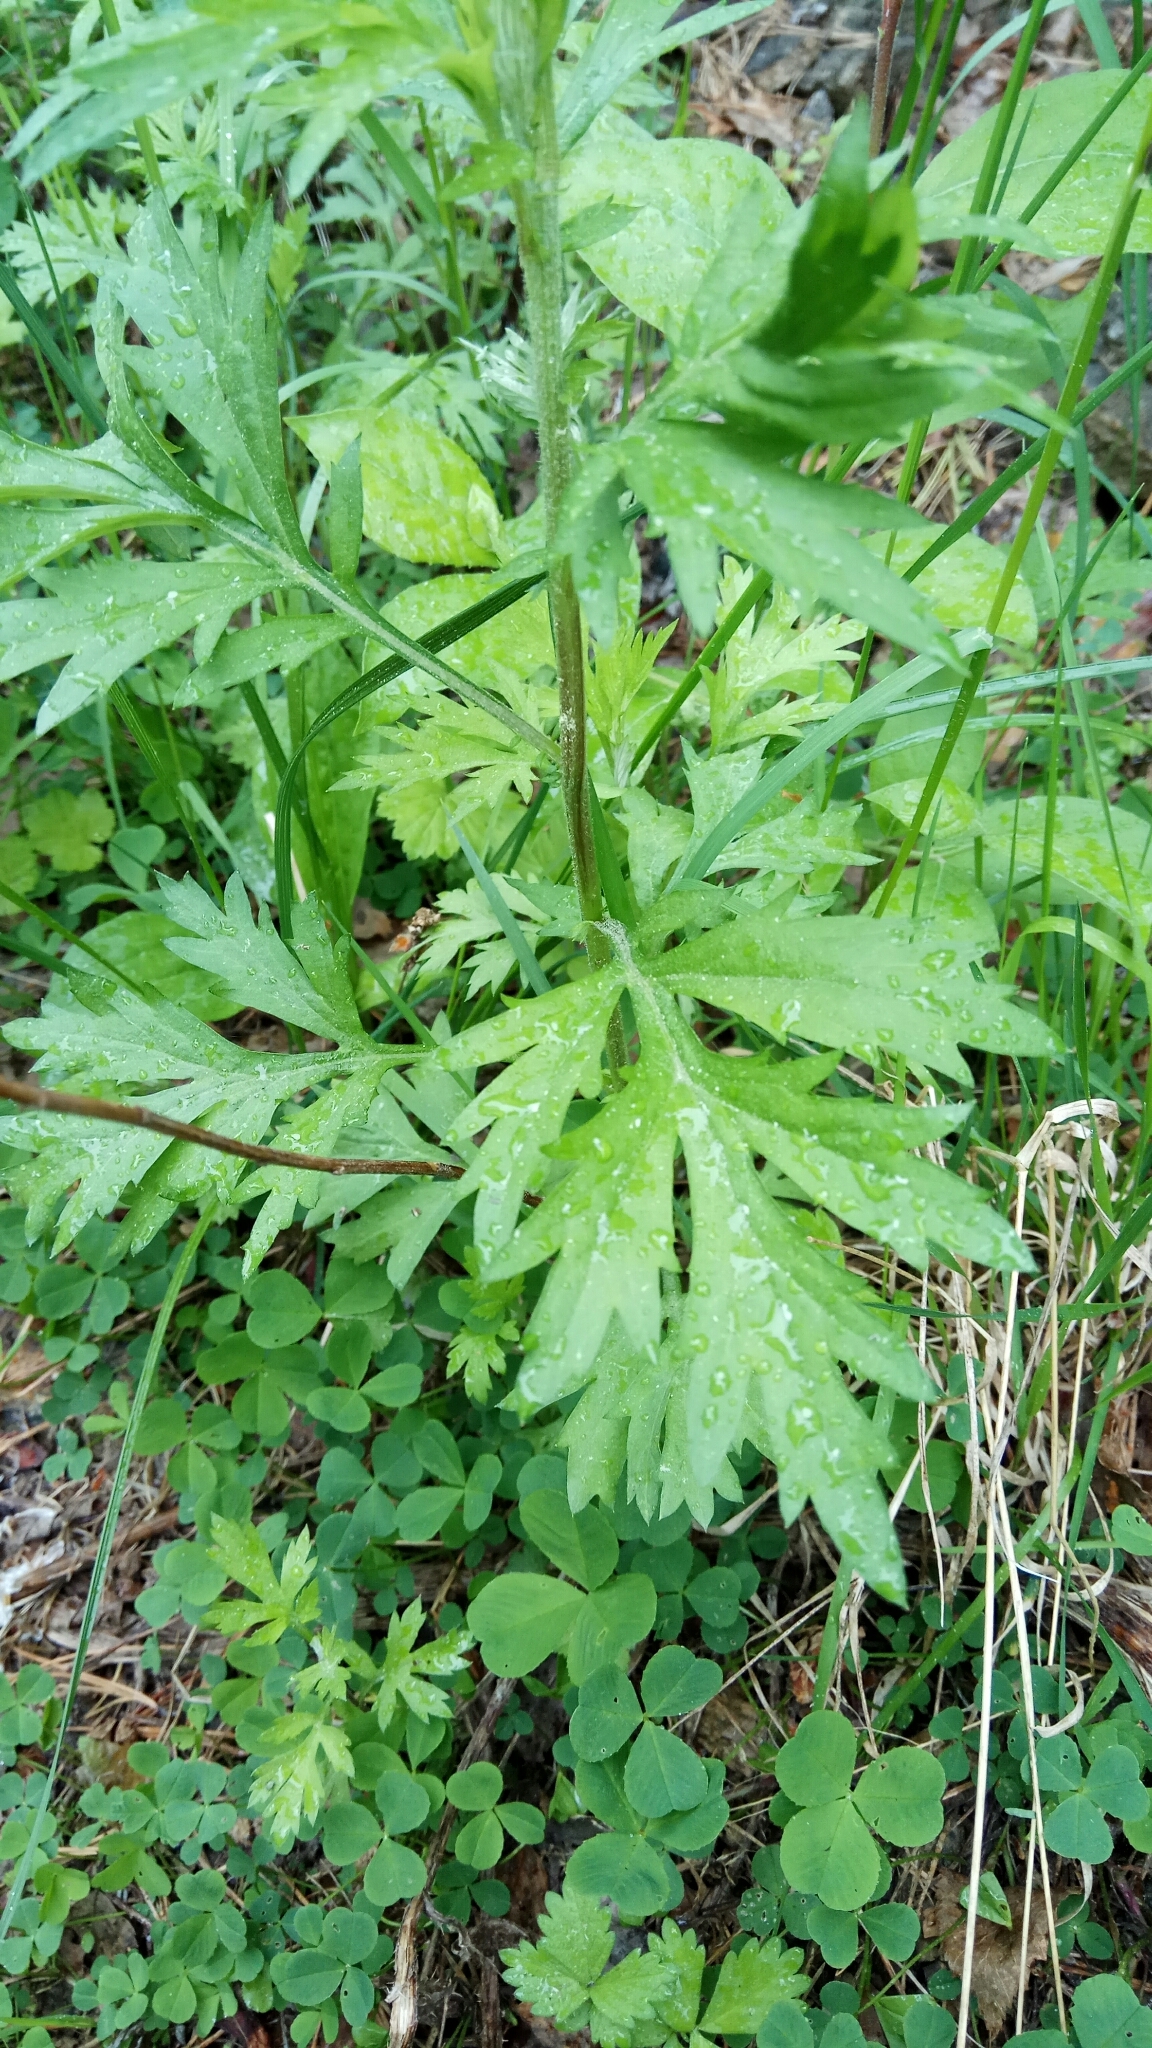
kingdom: Plantae
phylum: Tracheophyta
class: Magnoliopsida
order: Asterales
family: Asteraceae
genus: Artemisia
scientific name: Artemisia vulgaris
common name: Mugwort
